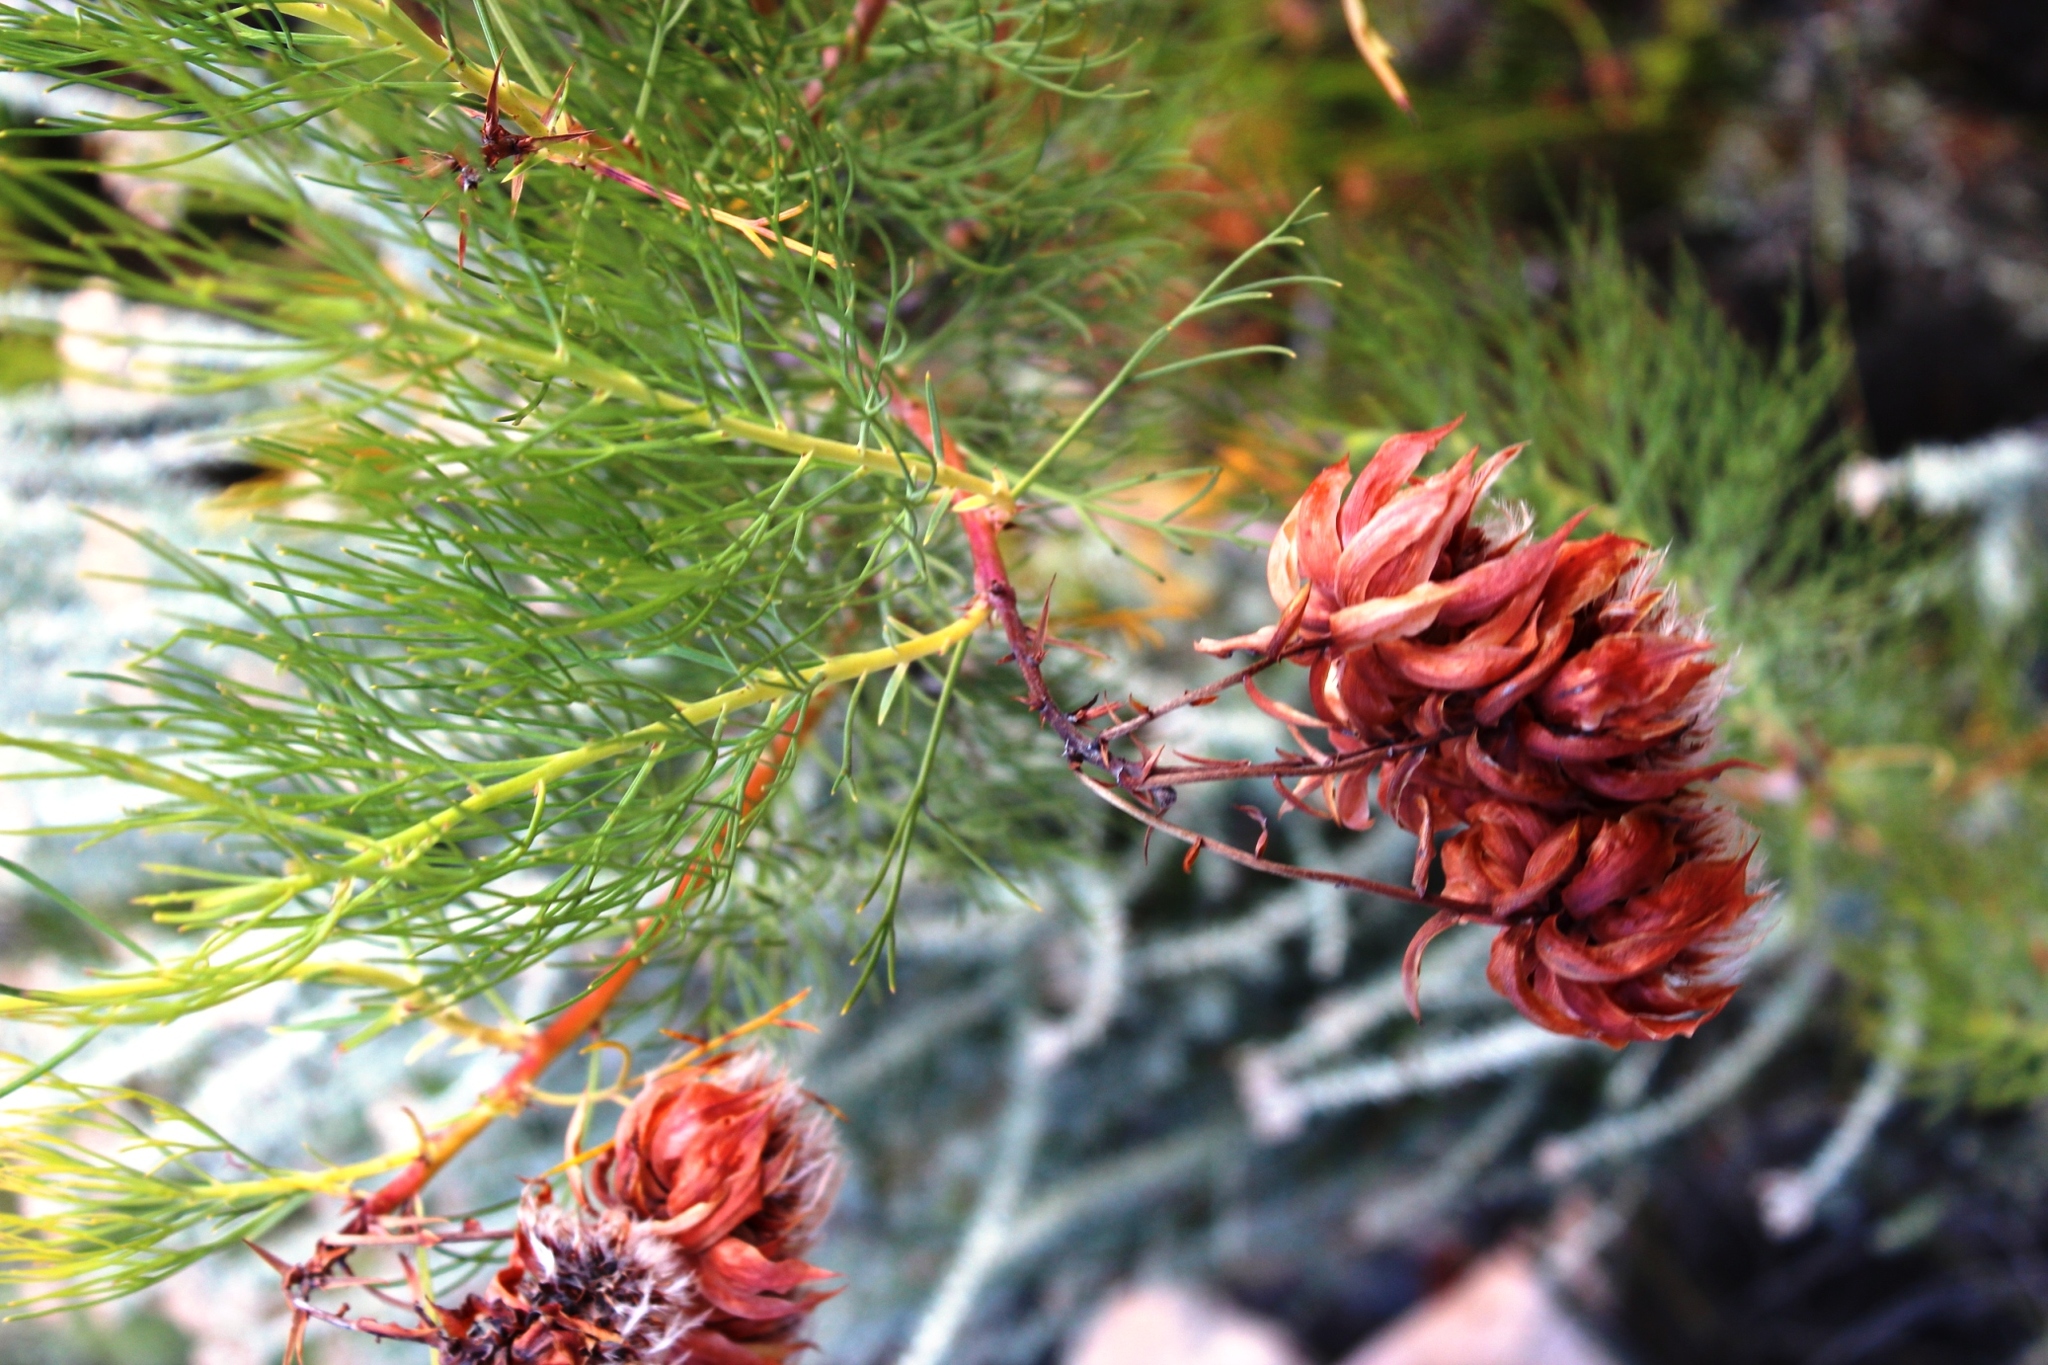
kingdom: Plantae
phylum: Tracheophyta
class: Magnoliopsida
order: Proteales
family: Proteaceae
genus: Serruria
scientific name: Serruria florida
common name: Blushing bride
